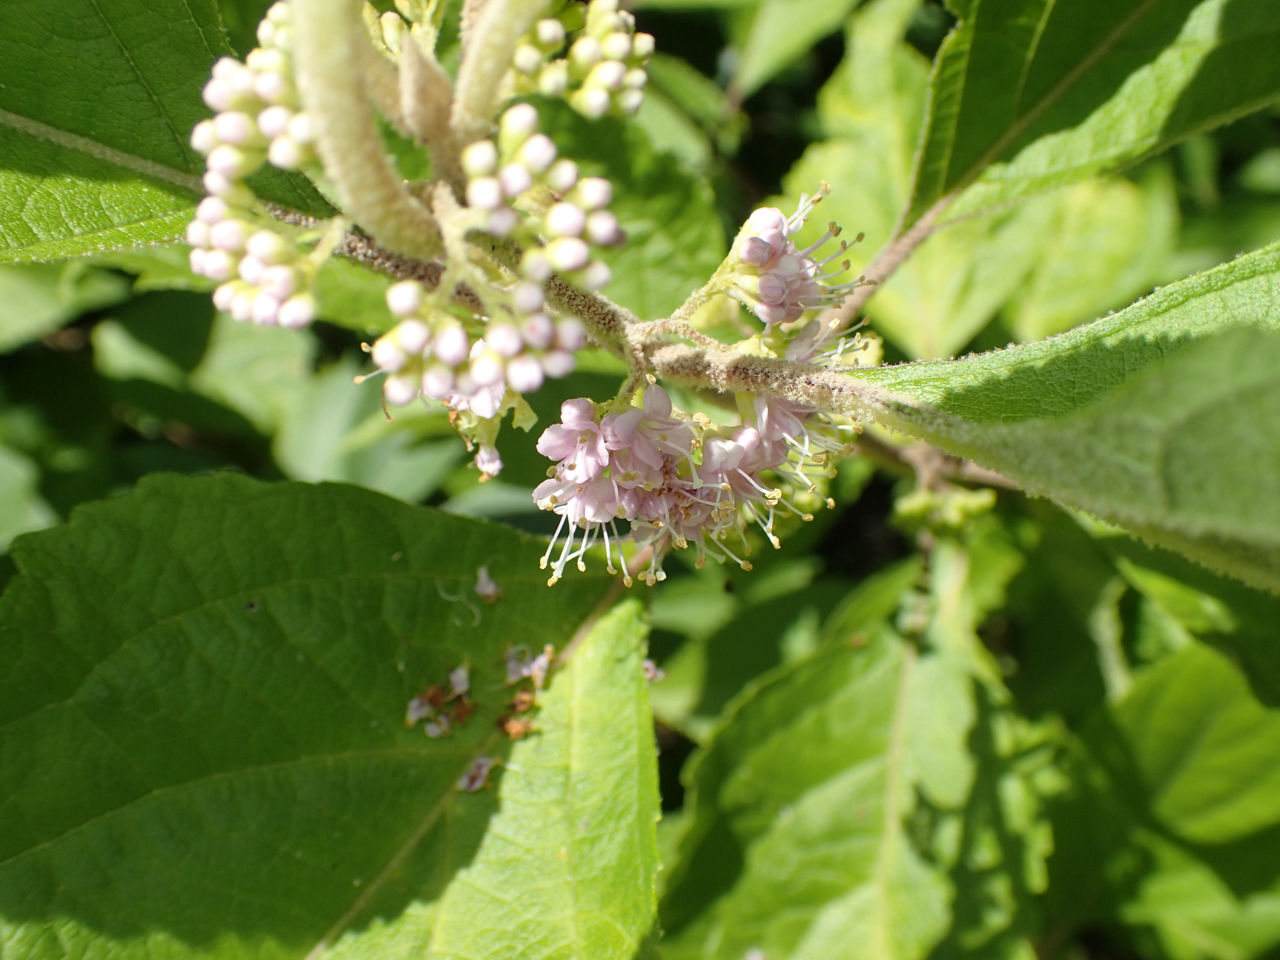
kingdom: Plantae
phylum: Tracheophyta
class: Magnoliopsida
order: Lamiales
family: Lamiaceae
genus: Callicarpa
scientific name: Callicarpa americana
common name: American beautyberry
